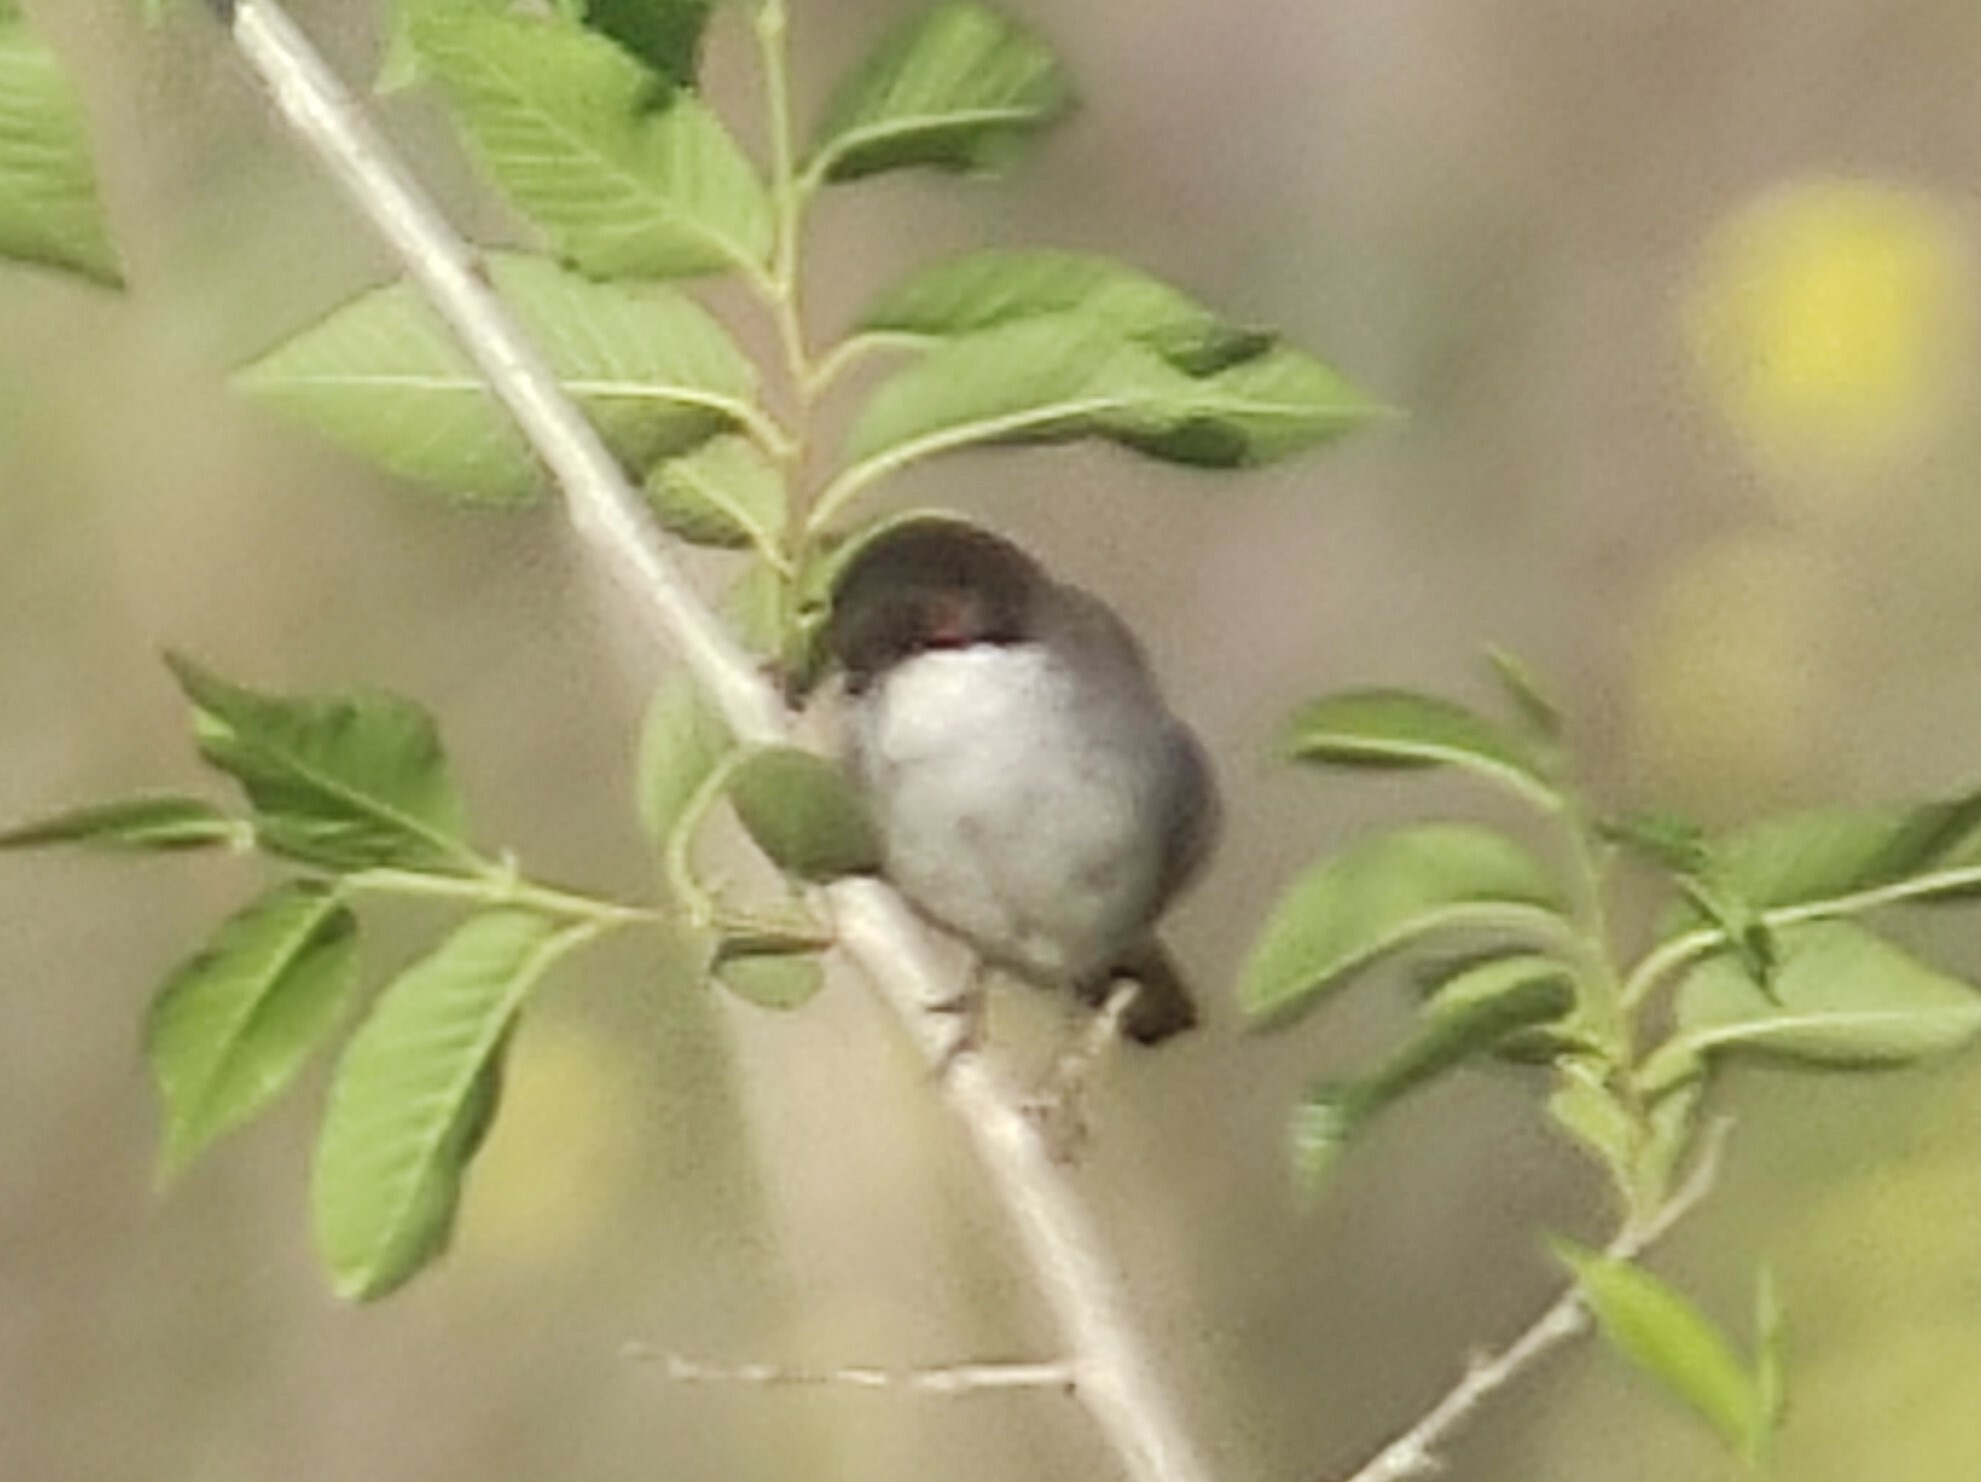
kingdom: Animalia
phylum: Chordata
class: Aves
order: Passeriformes
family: Sylviidae
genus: Curruca
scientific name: Curruca melanocephala
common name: Sardinian warbler
